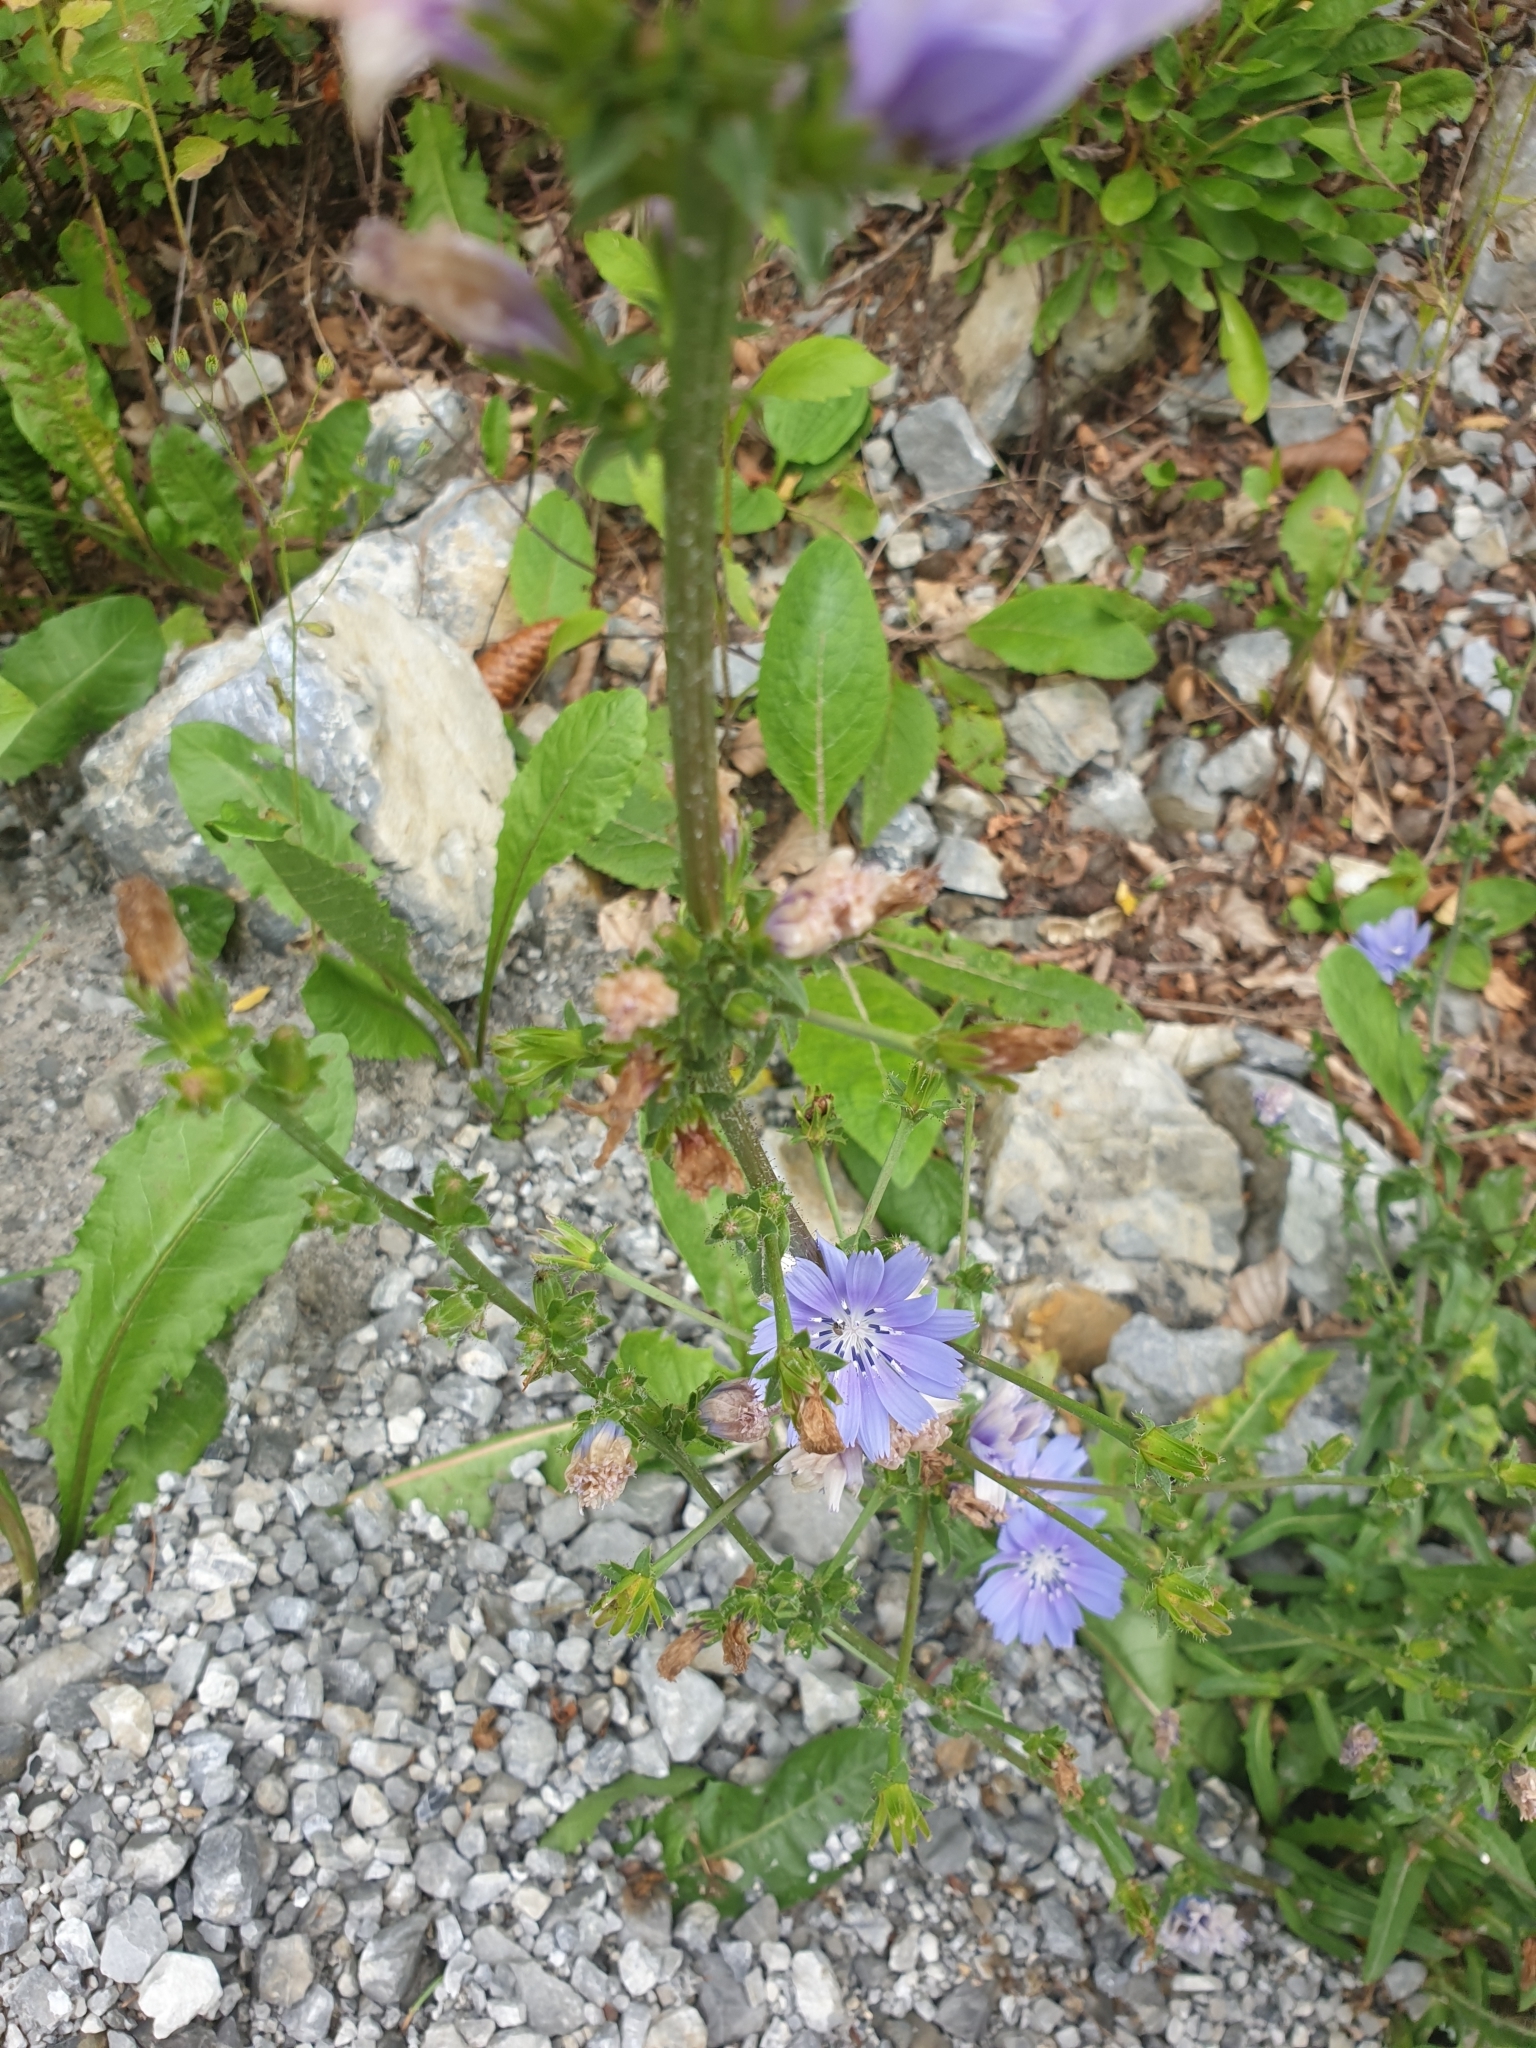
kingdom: Plantae
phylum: Tracheophyta
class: Magnoliopsida
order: Asterales
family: Asteraceae
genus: Cichorium
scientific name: Cichorium intybus
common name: Chicory
